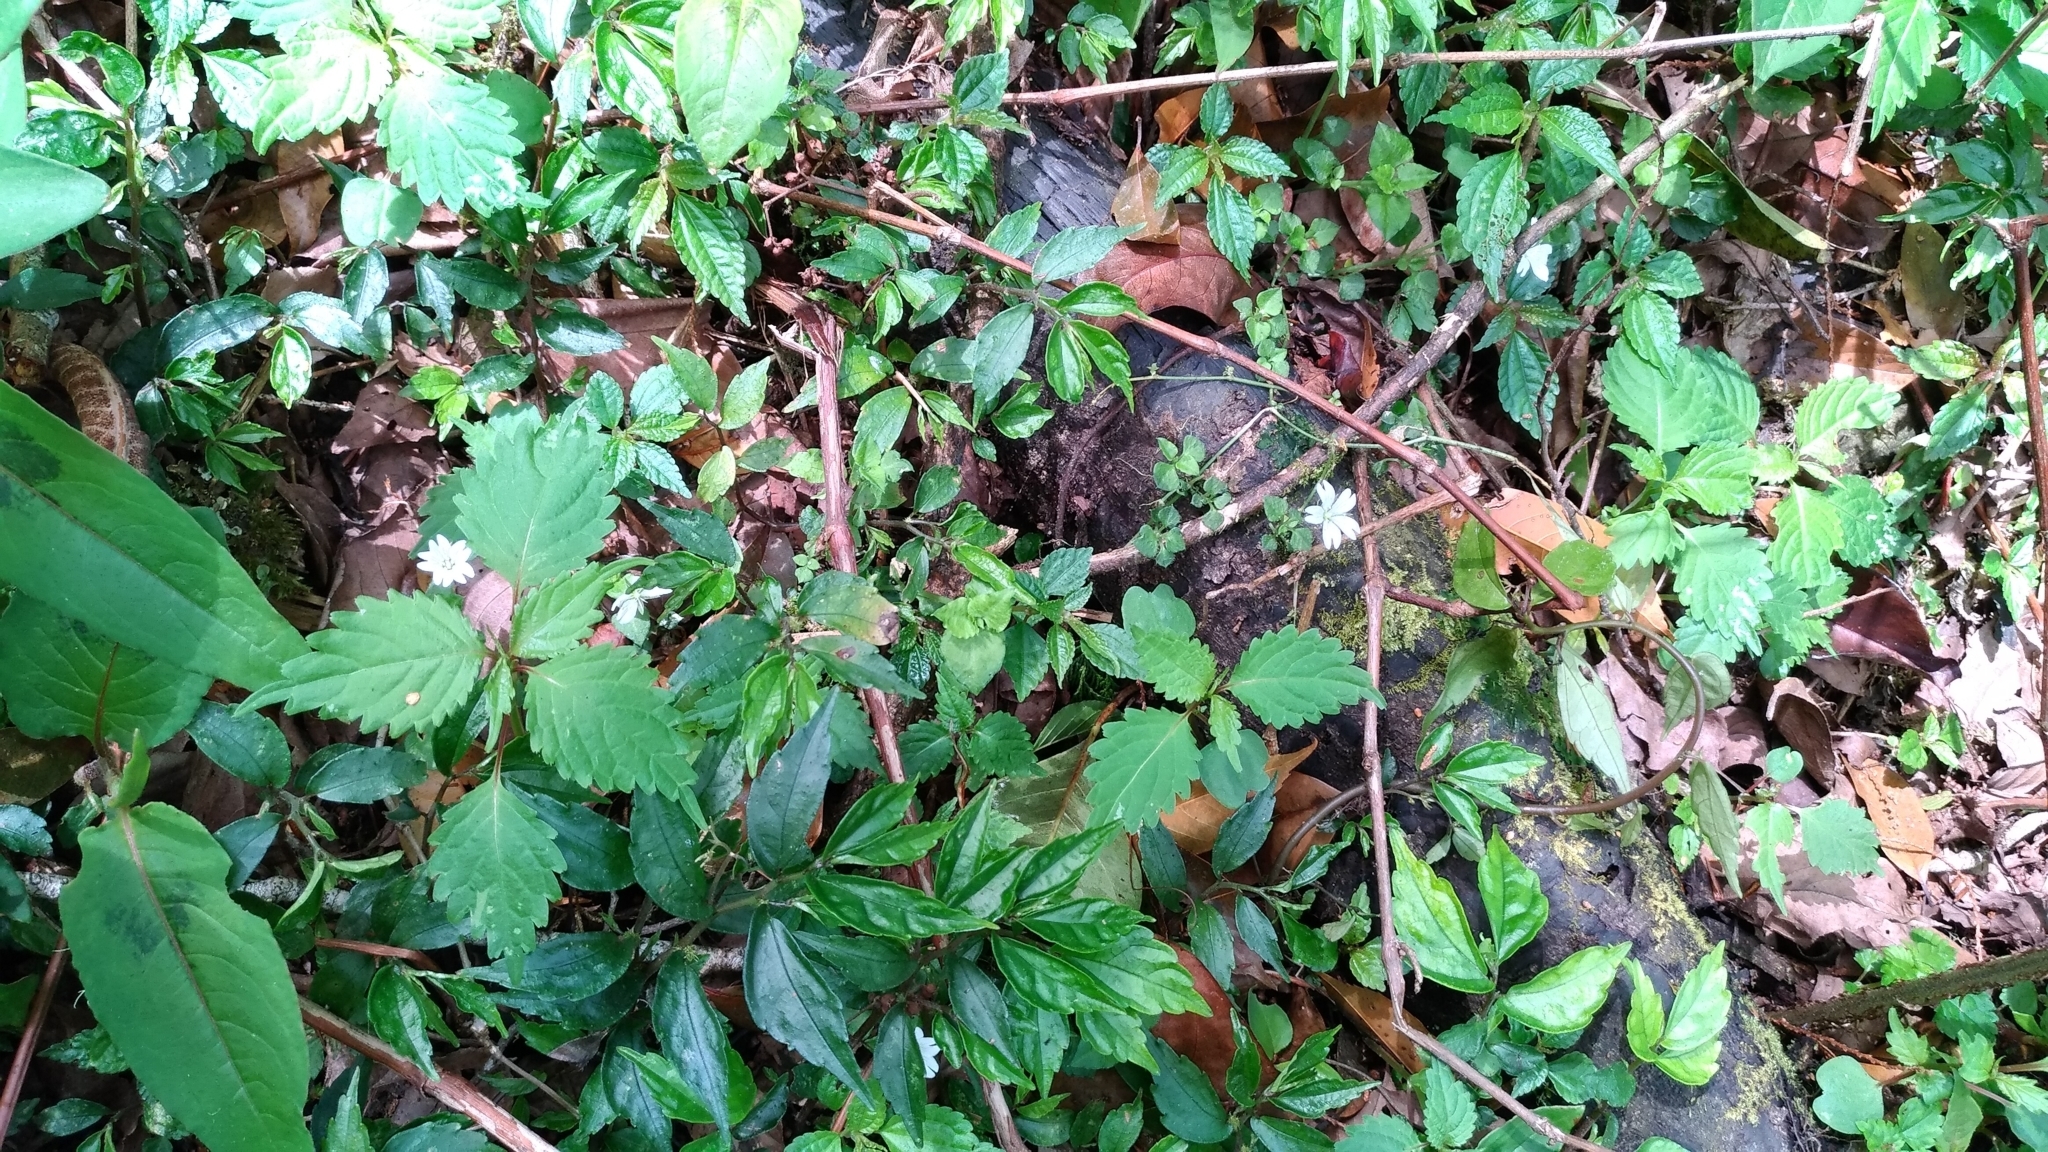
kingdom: Plantae
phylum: Tracheophyta
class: Magnoliopsida
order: Caryophyllales
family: Caryophyllaceae
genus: Nubelaria
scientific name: Nubelaria arisanensis
